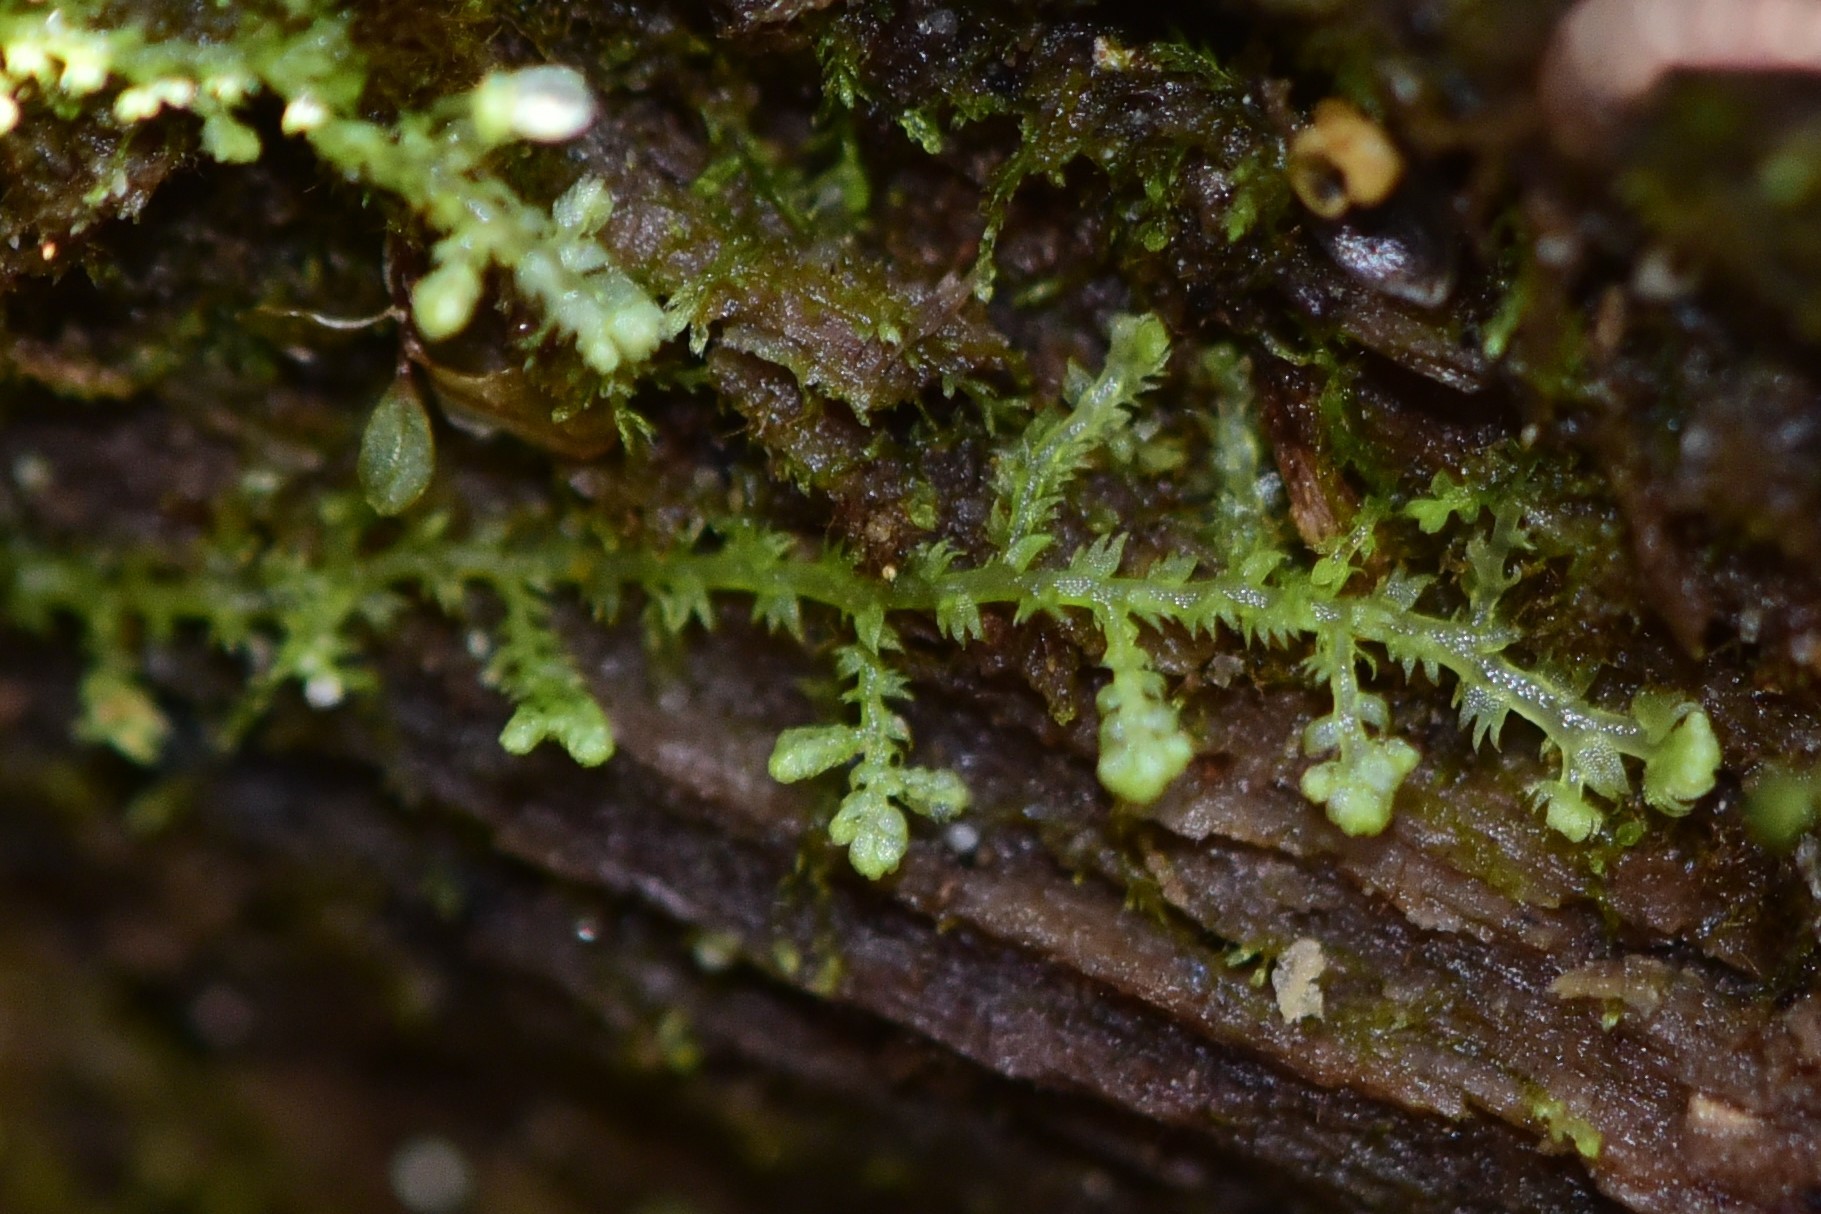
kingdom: Plantae
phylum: Marchantiophyta
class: Jungermanniopsida
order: Jungermanniales
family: Lepidoziaceae
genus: Lepidozia
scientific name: Lepidozia reptans
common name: Creeping fingerwort
